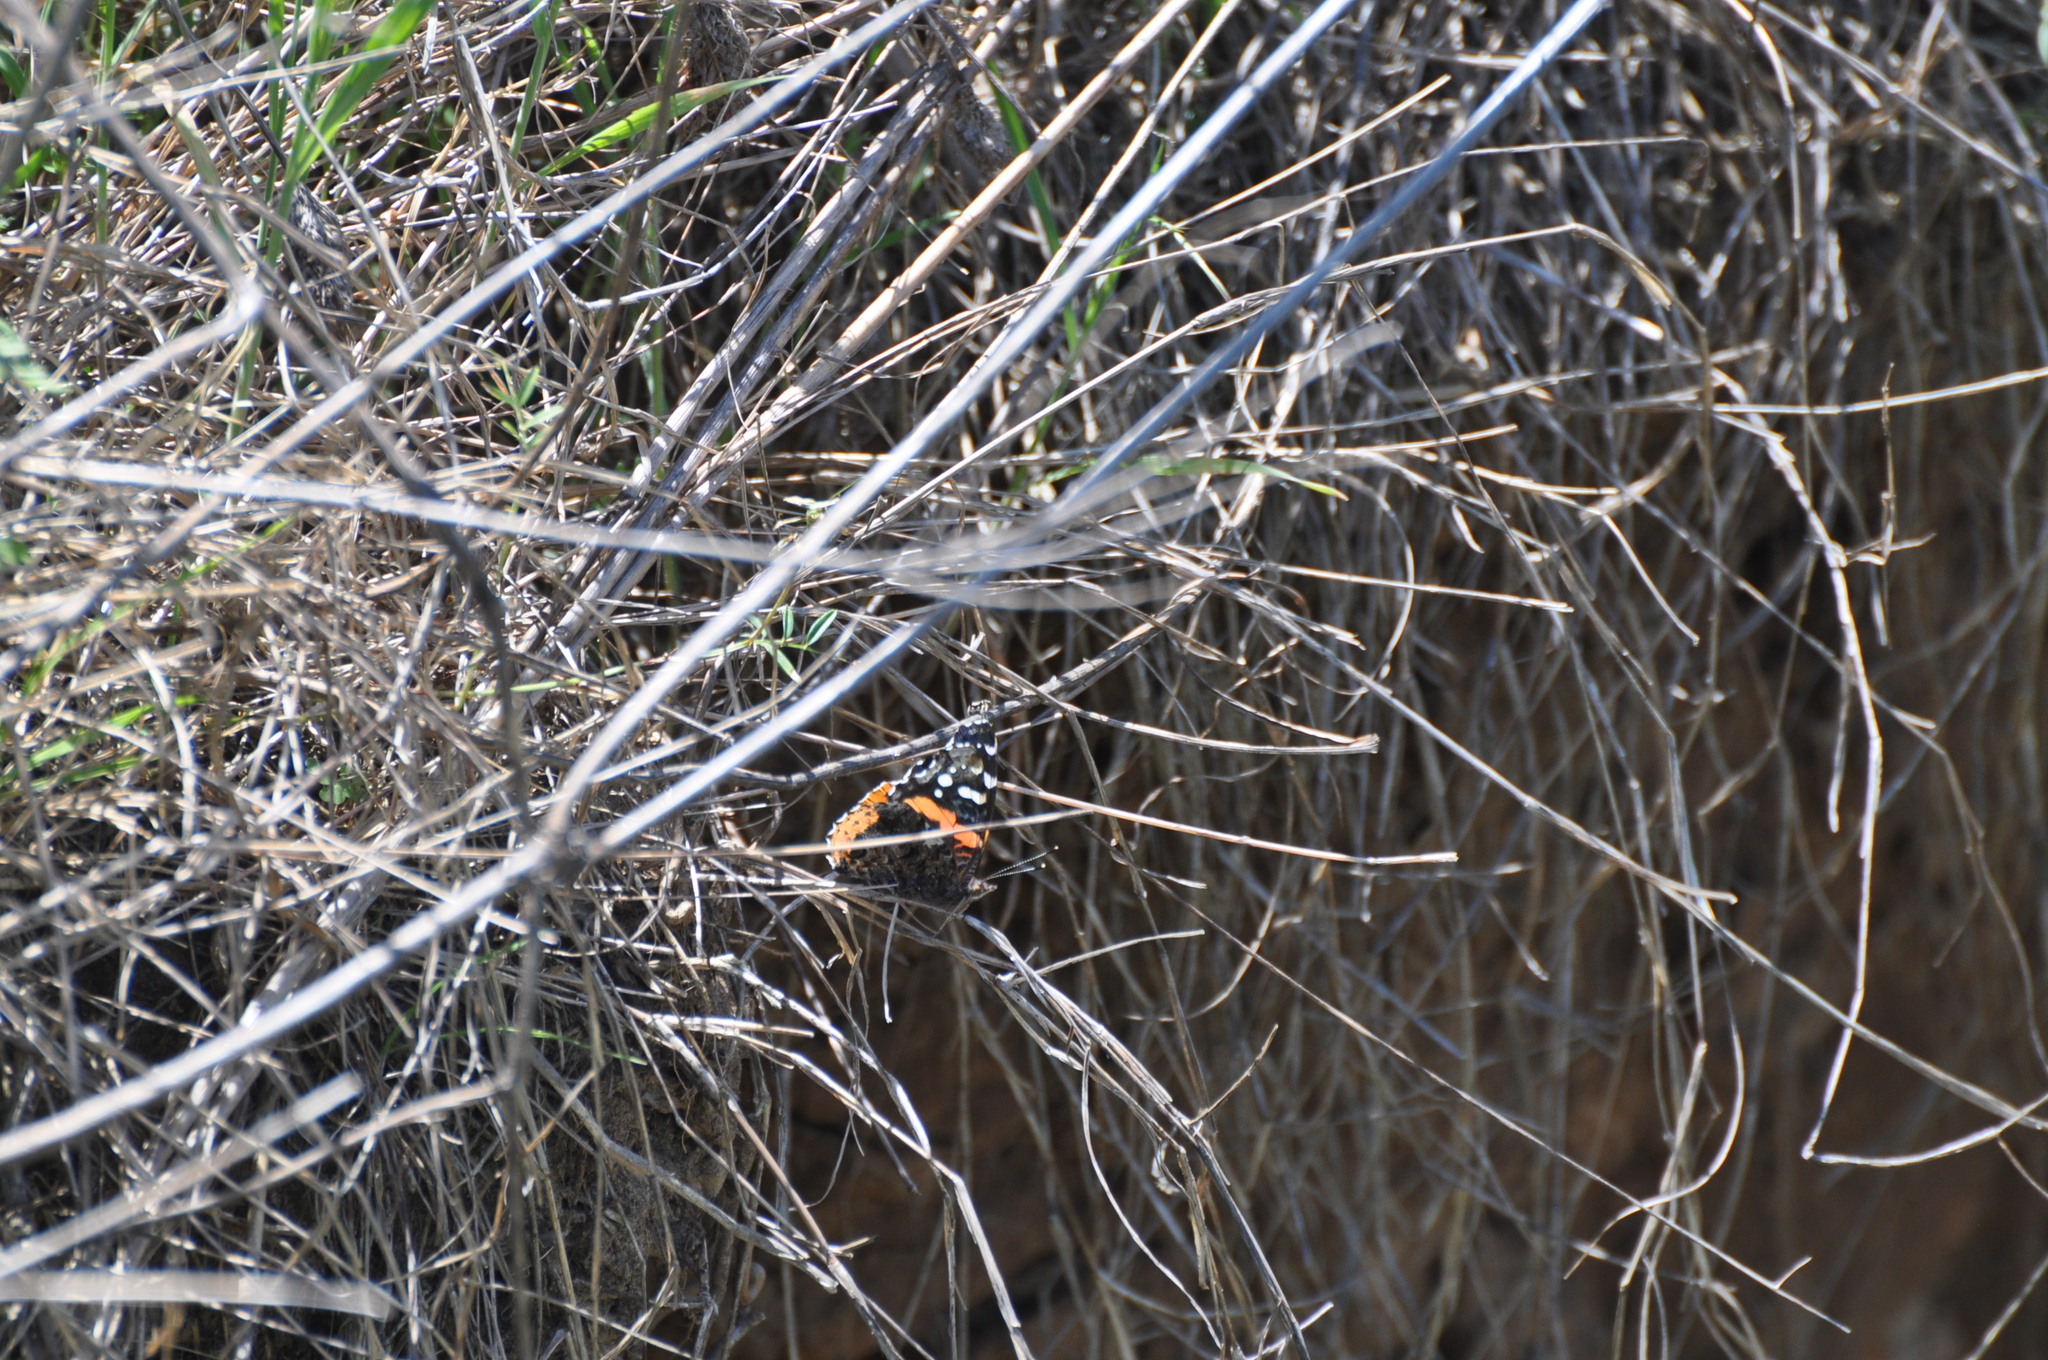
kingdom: Animalia
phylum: Arthropoda
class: Insecta
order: Lepidoptera
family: Nymphalidae
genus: Vanessa
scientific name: Vanessa atalanta
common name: Red admiral
